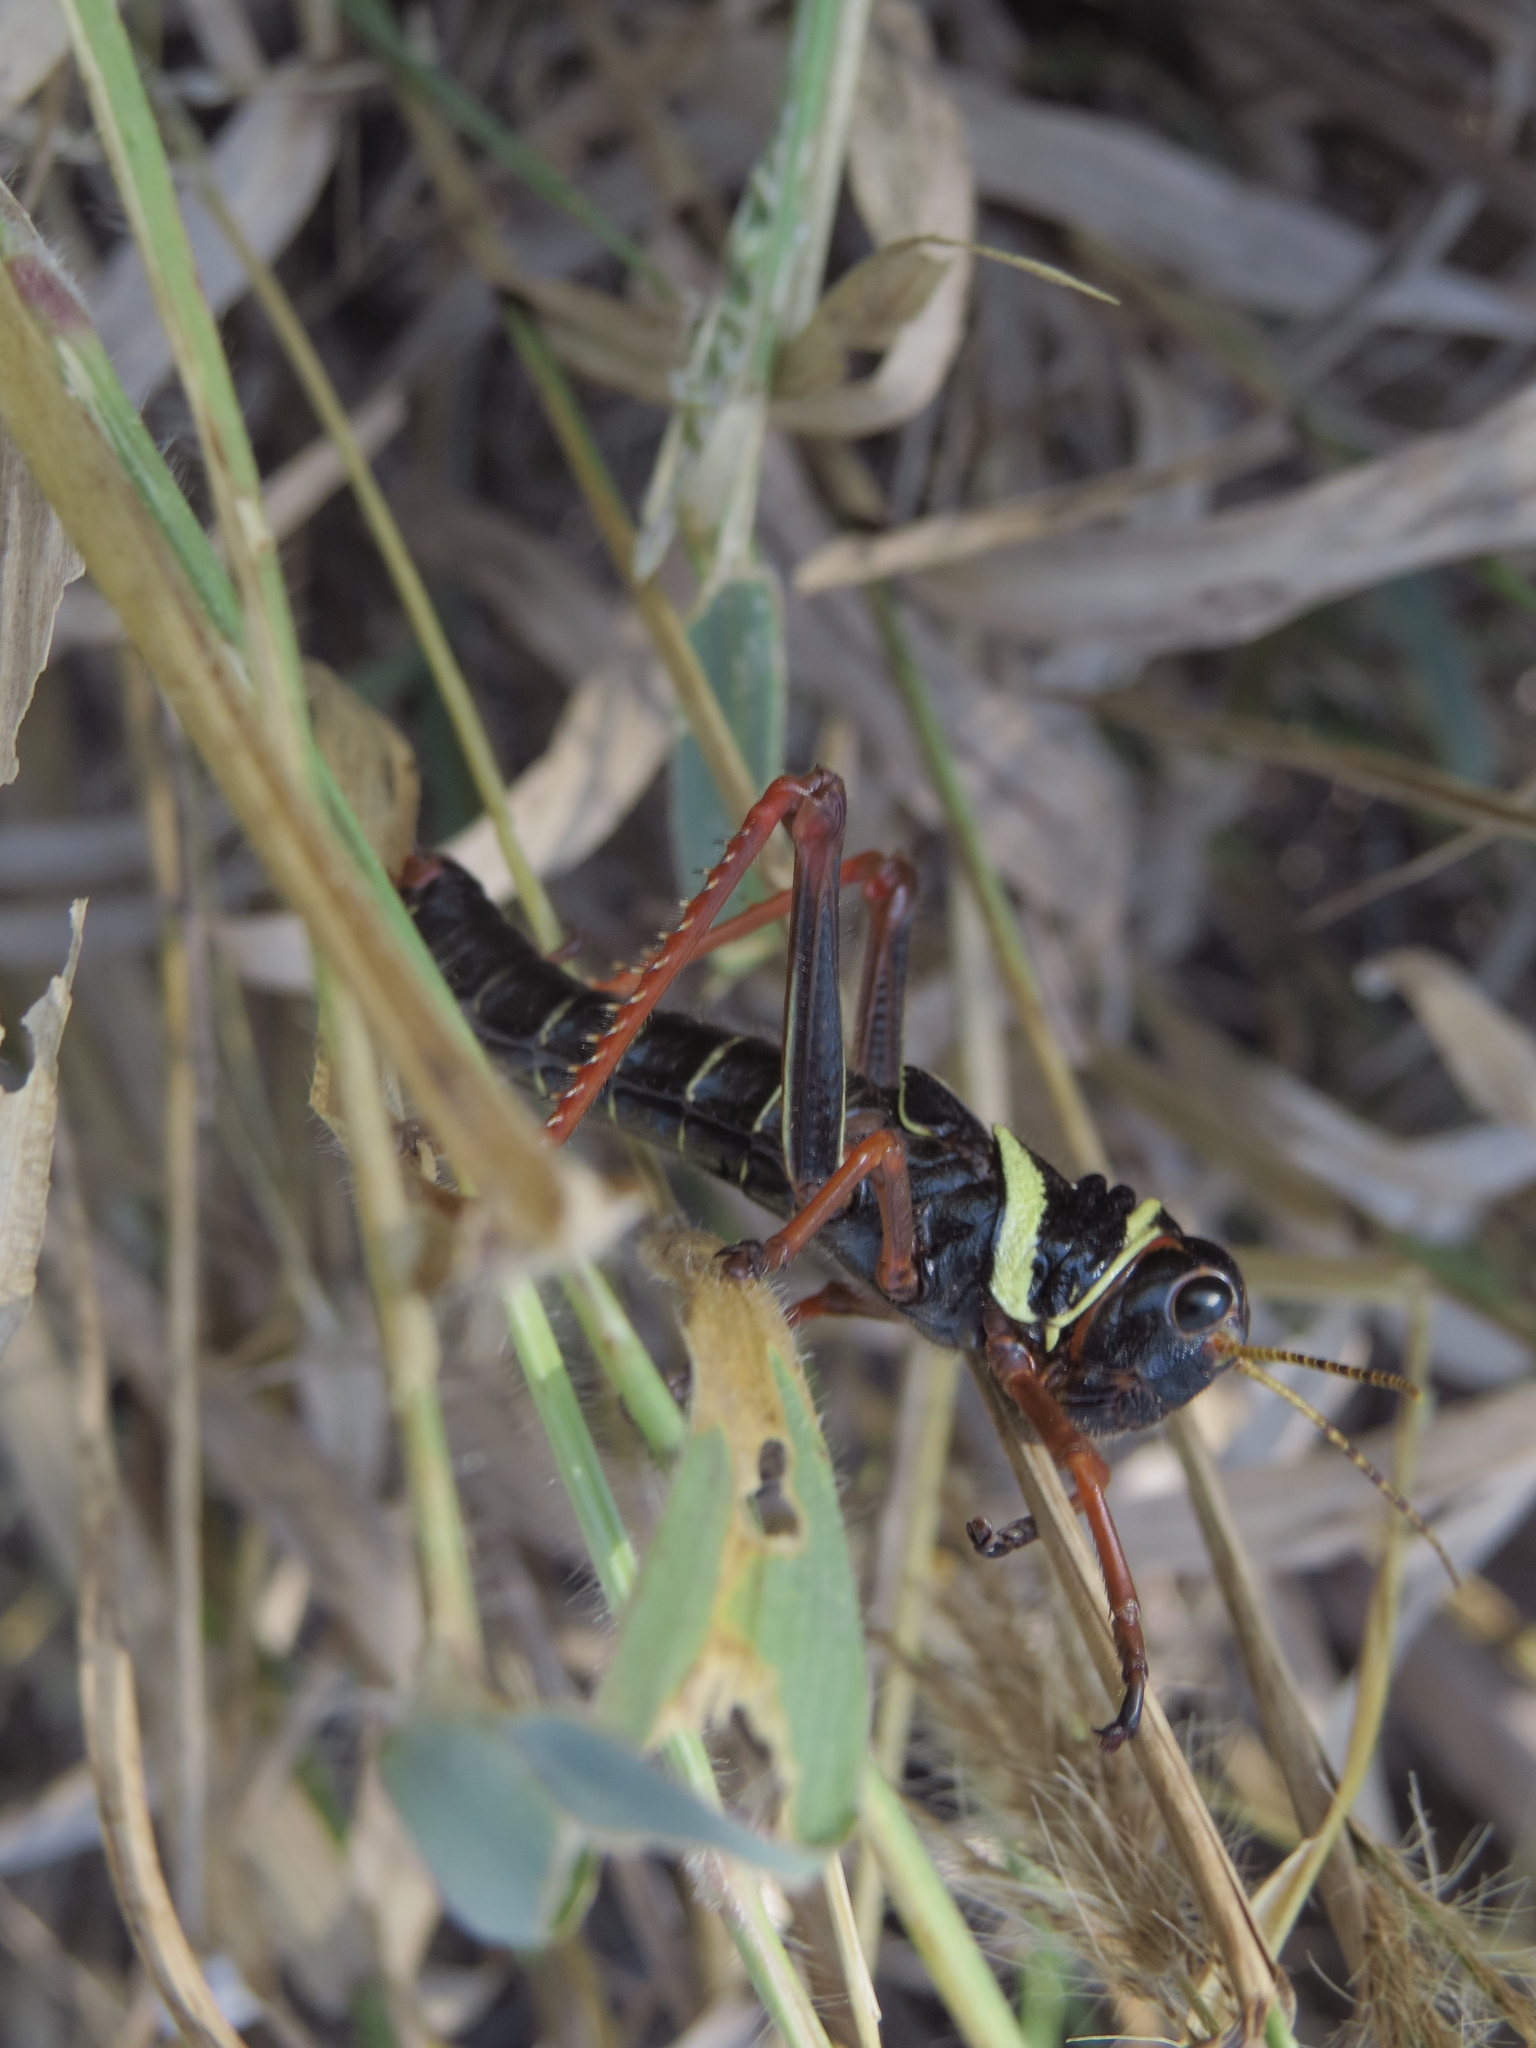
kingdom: Animalia
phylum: Arthropoda
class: Insecta
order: Orthoptera
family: Romaleidae
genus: Tropidacris
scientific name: Tropidacris collaris
